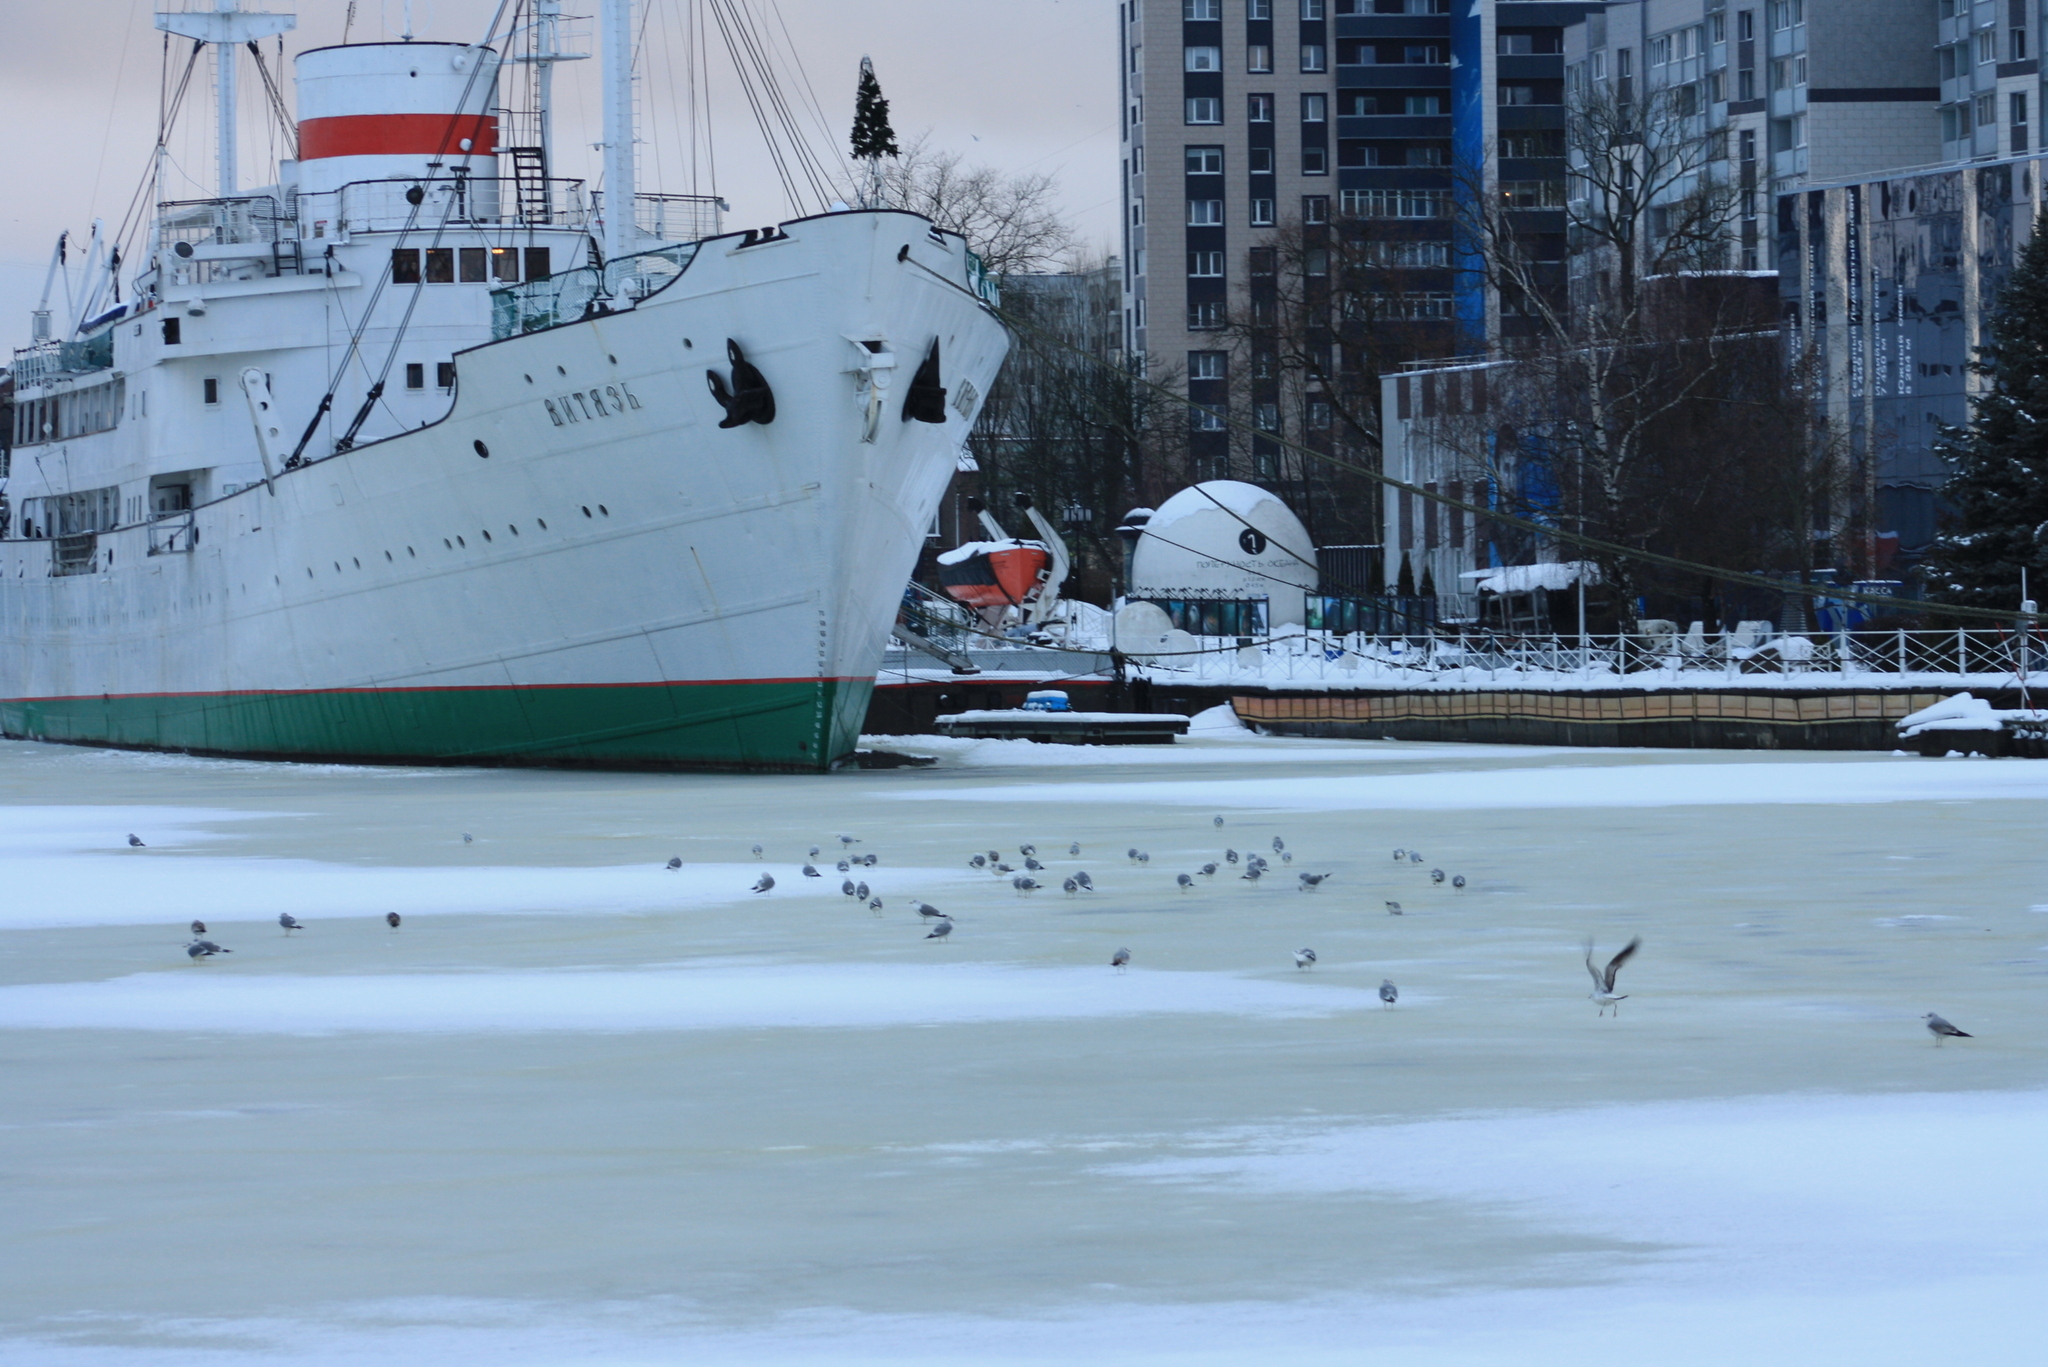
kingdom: Animalia
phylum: Chordata
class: Aves
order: Charadriiformes
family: Laridae
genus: Larus
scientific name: Larus argentatus
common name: Herring gull
